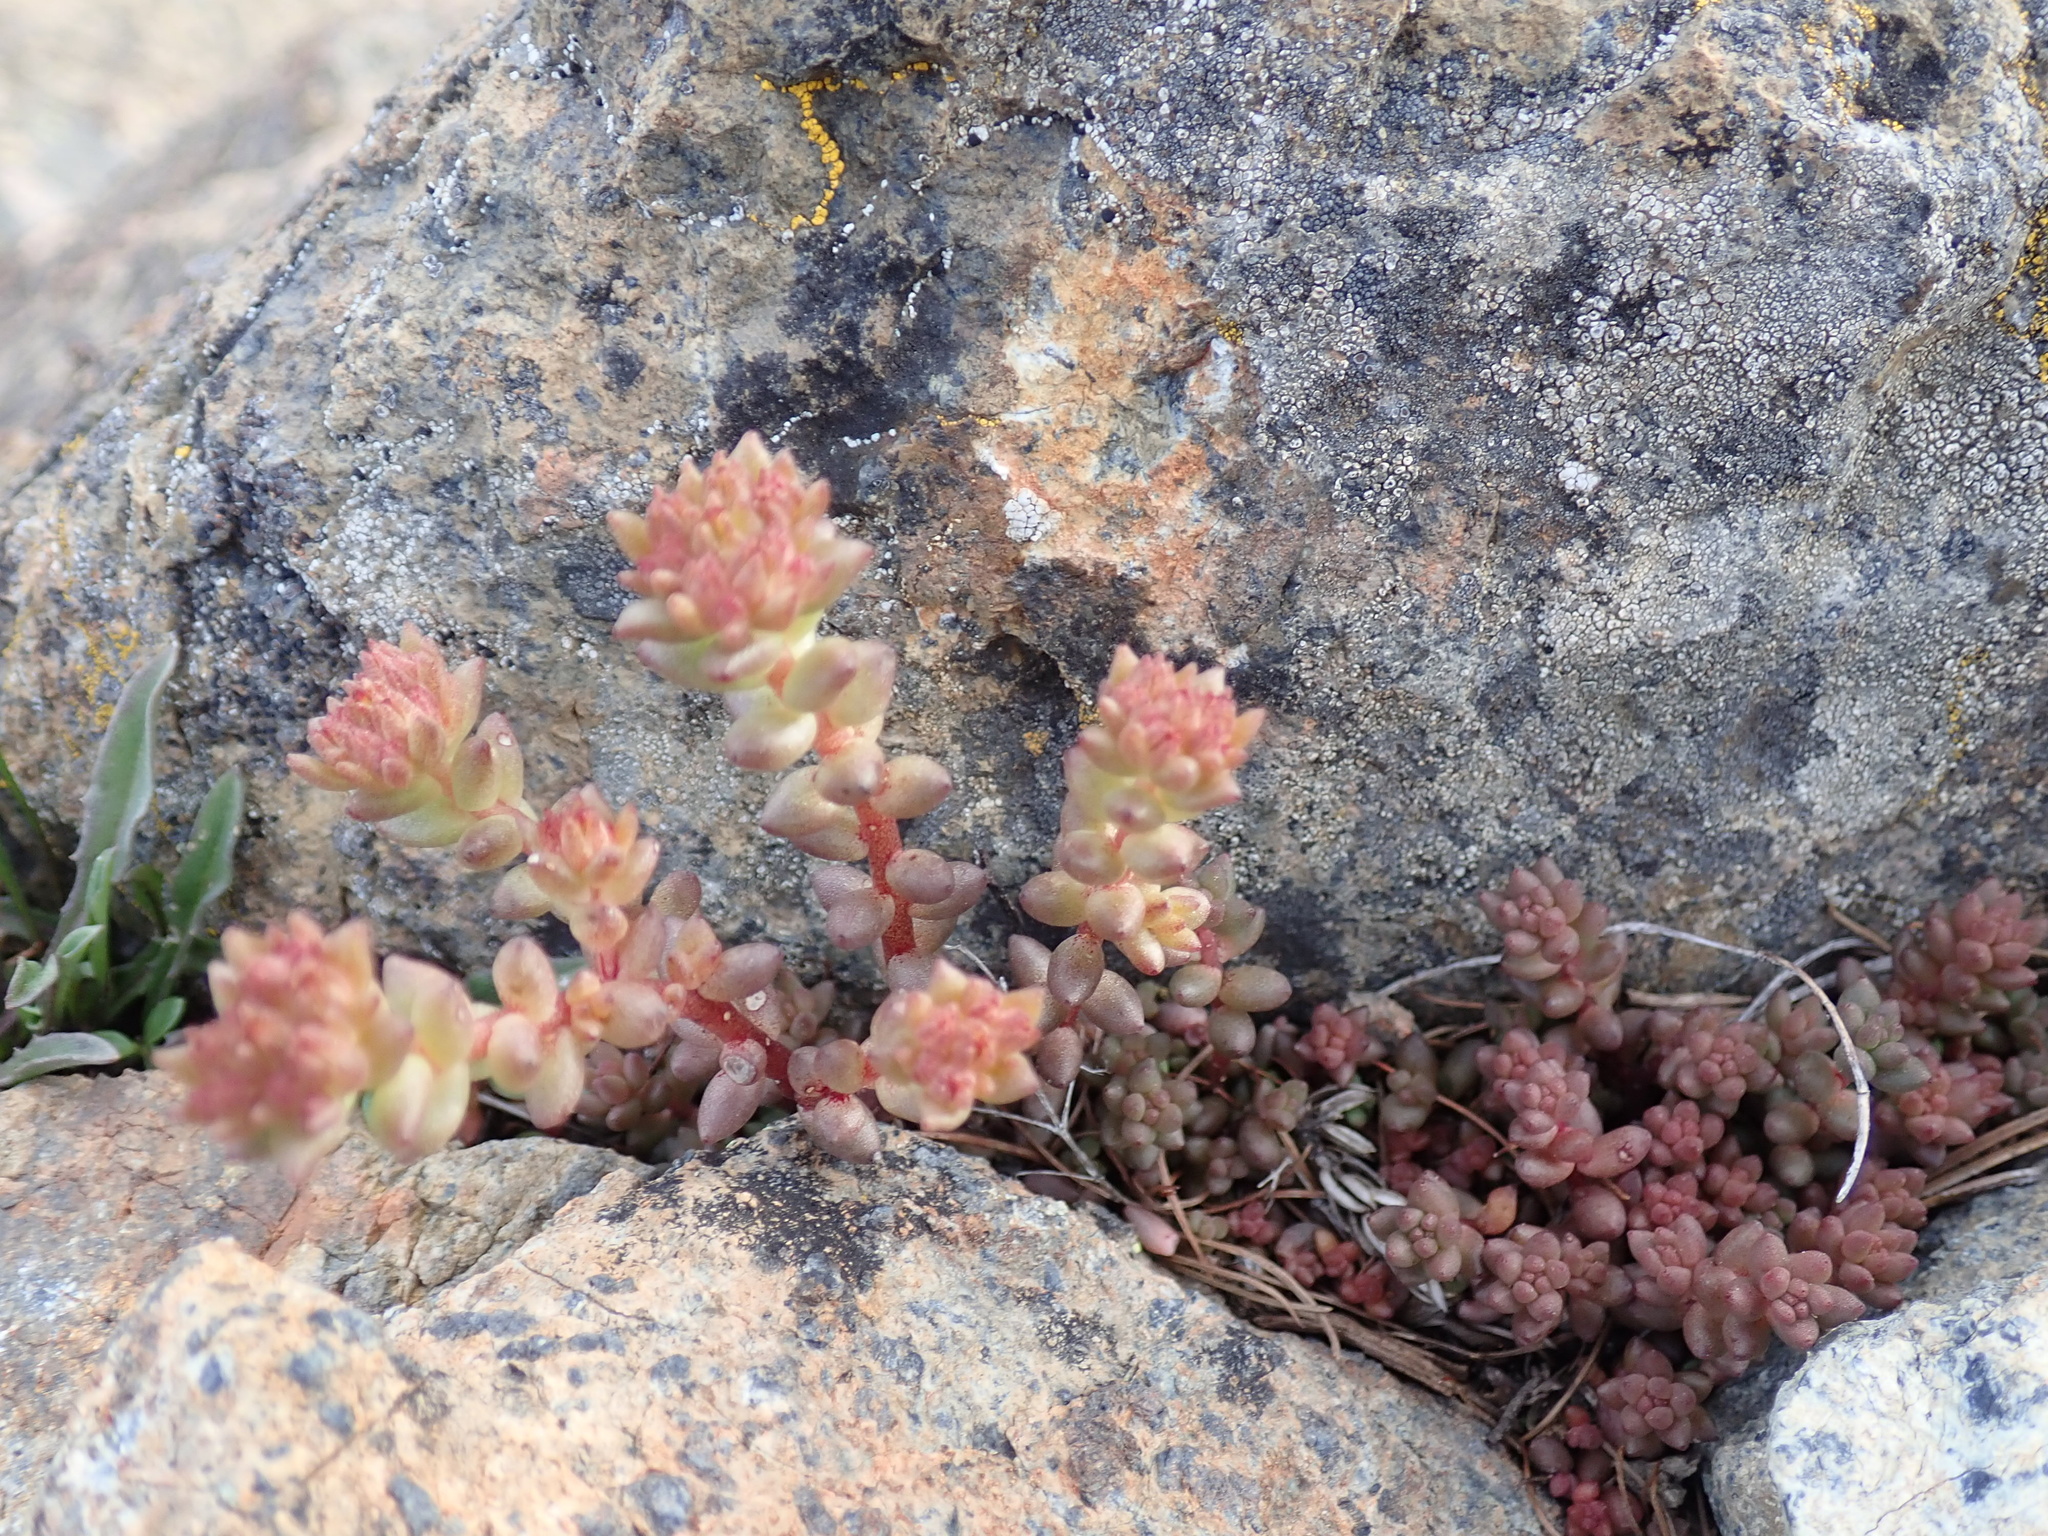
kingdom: Plantae
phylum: Tracheophyta
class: Magnoliopsida
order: Saxifragales
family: Crassulaceae
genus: Sedum
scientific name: Sedum rupicola
